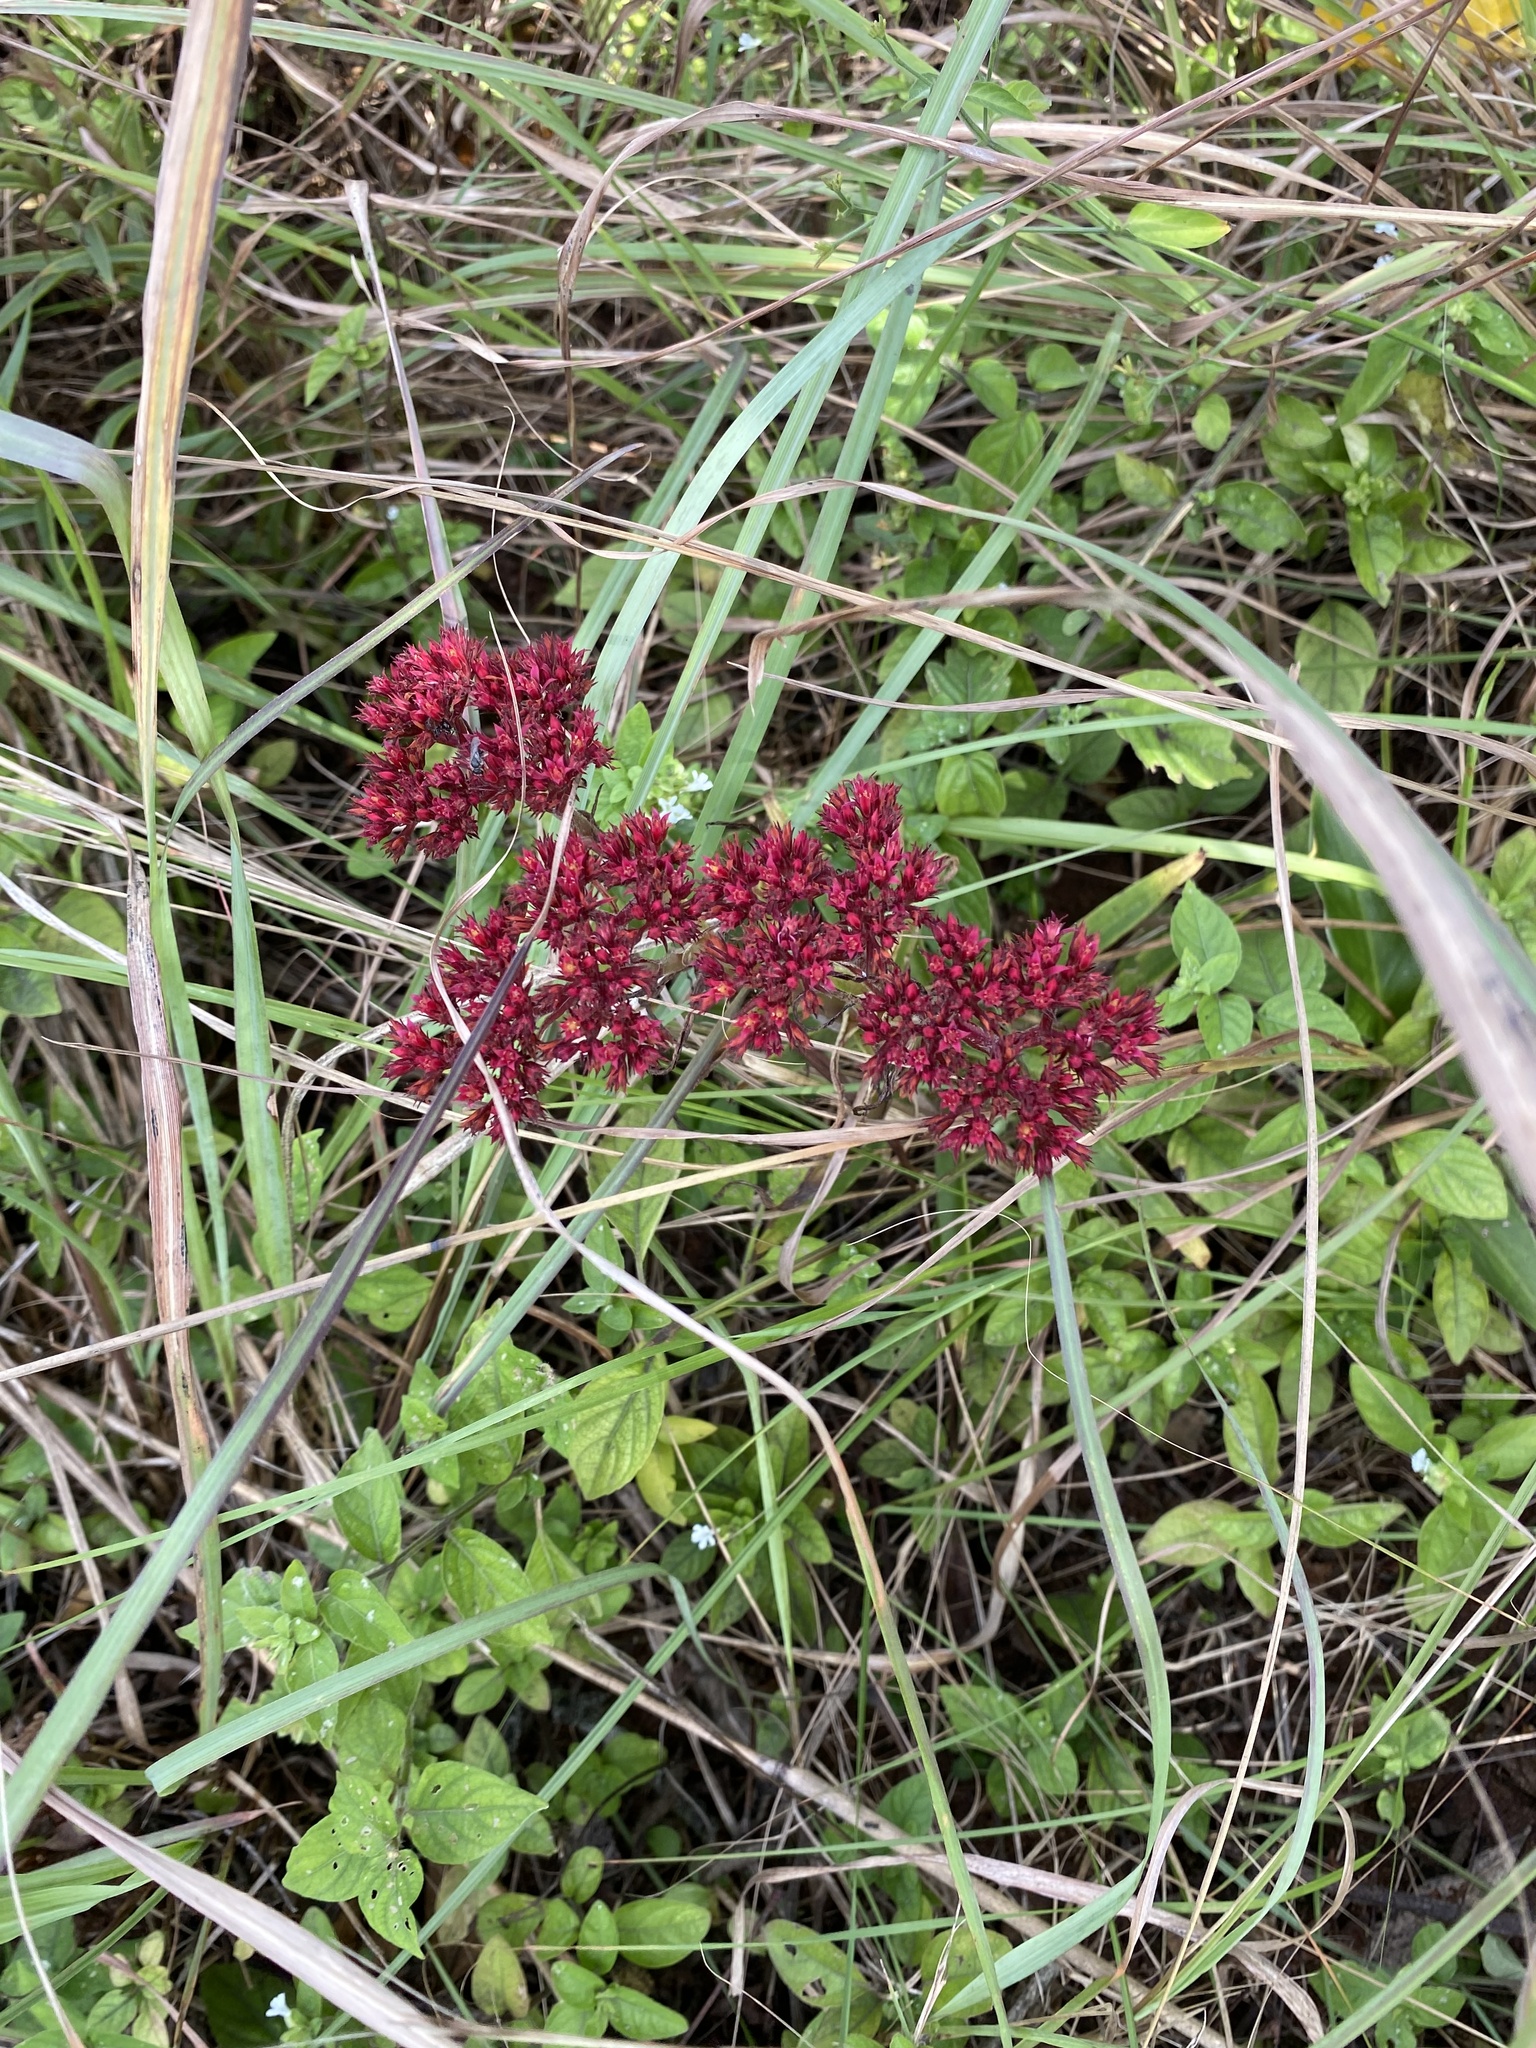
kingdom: Plantae
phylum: Tracheophyta
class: Magnoliopsida
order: Saxifragales
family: Crassulaceae
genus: Crassula
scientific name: Crassula alba
